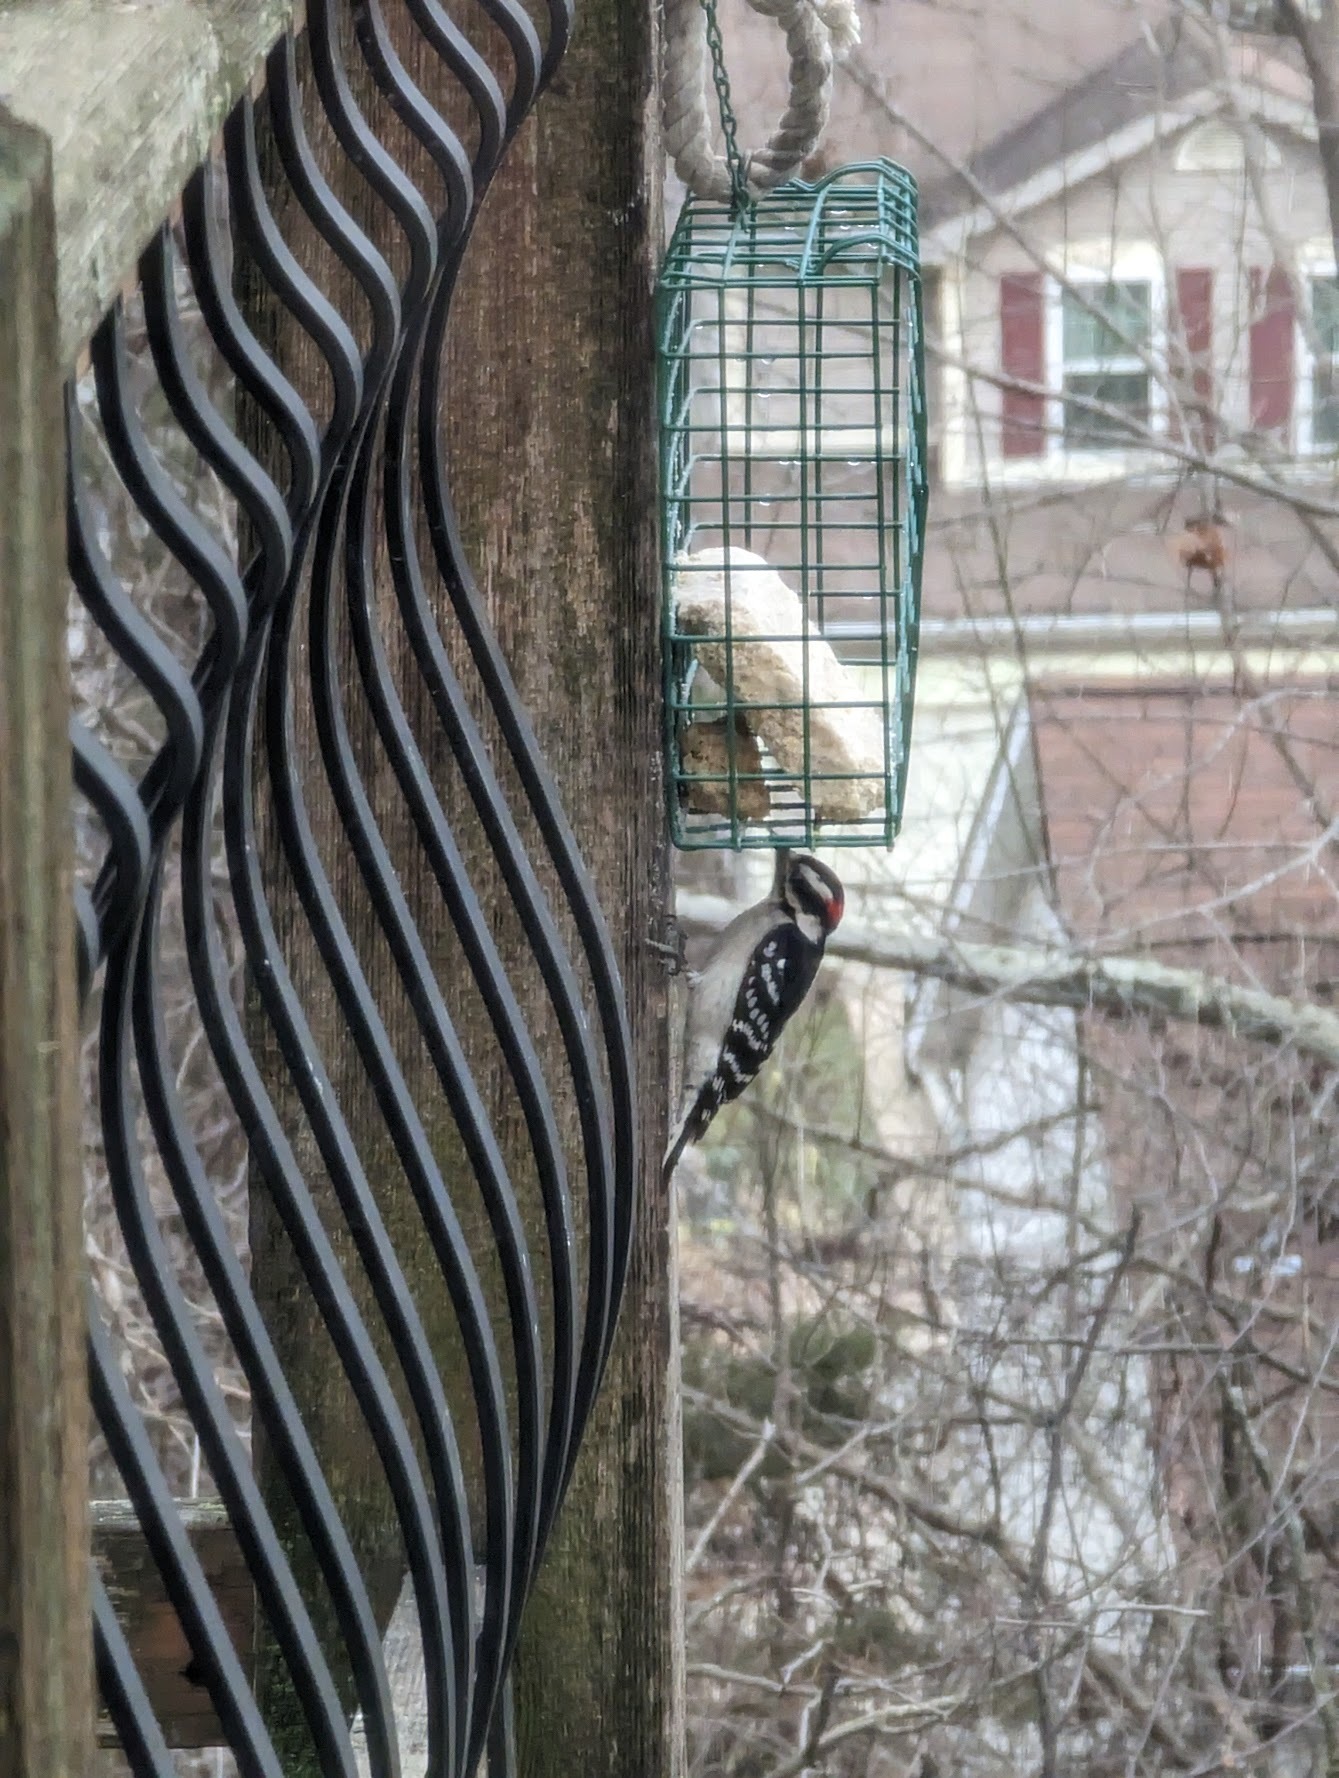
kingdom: Animalia
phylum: Chordata
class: Aves
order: Piciformes
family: Picidae
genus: Dryobates
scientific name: Dryobates pubescens
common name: Downy woodpecker
